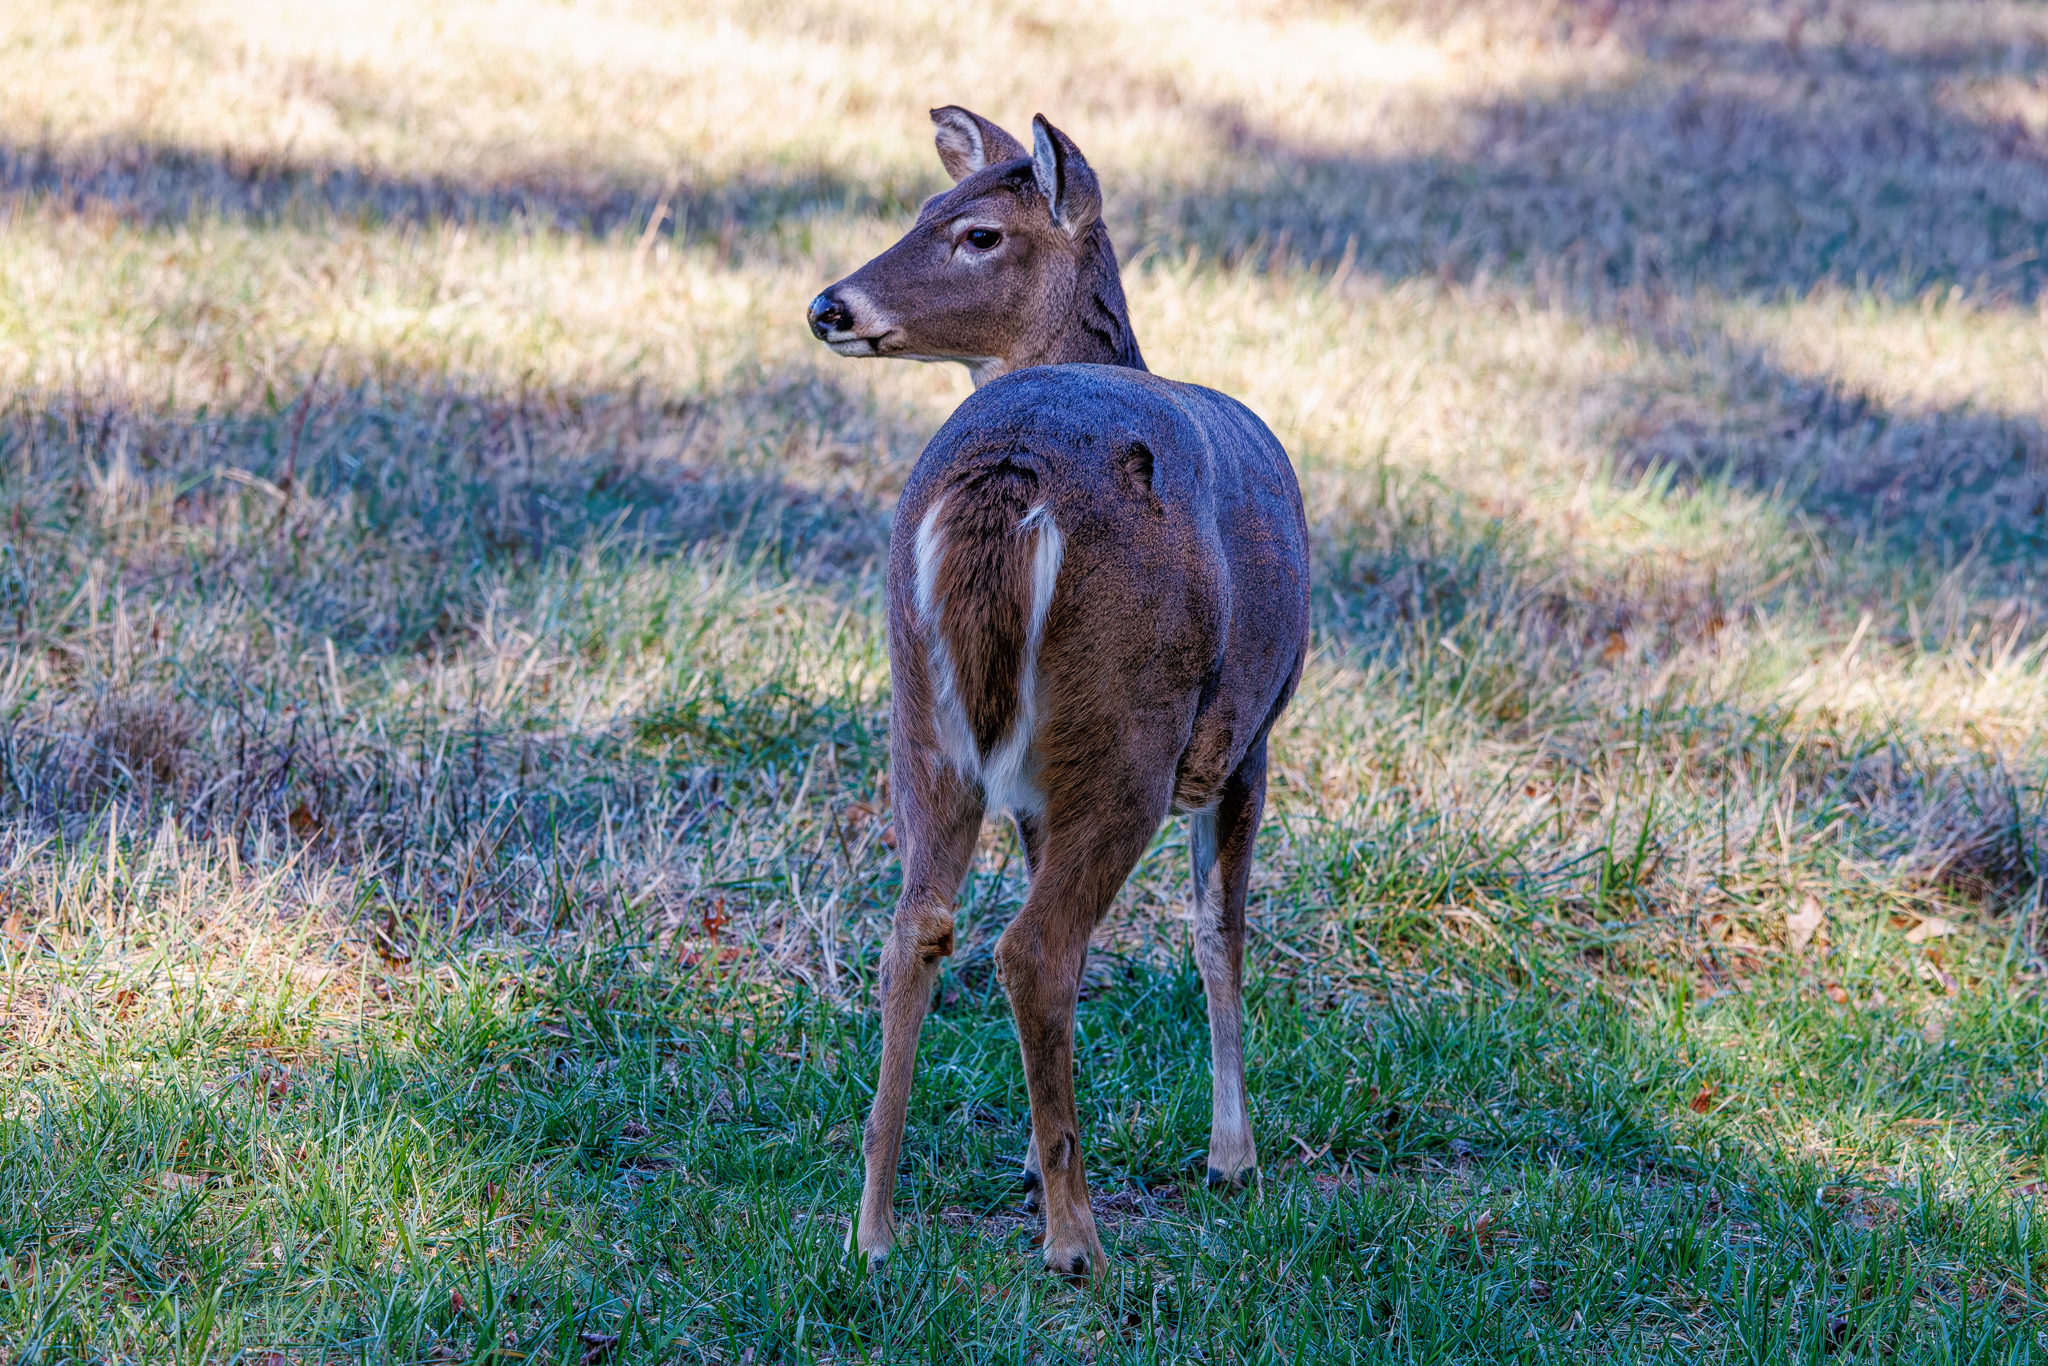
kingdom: Animalia
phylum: Chordata
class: Mammalia
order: Artiodactyla
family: Cervidae
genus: Odocoileus
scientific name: Odocoileus virginianus
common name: White-tailed deer
